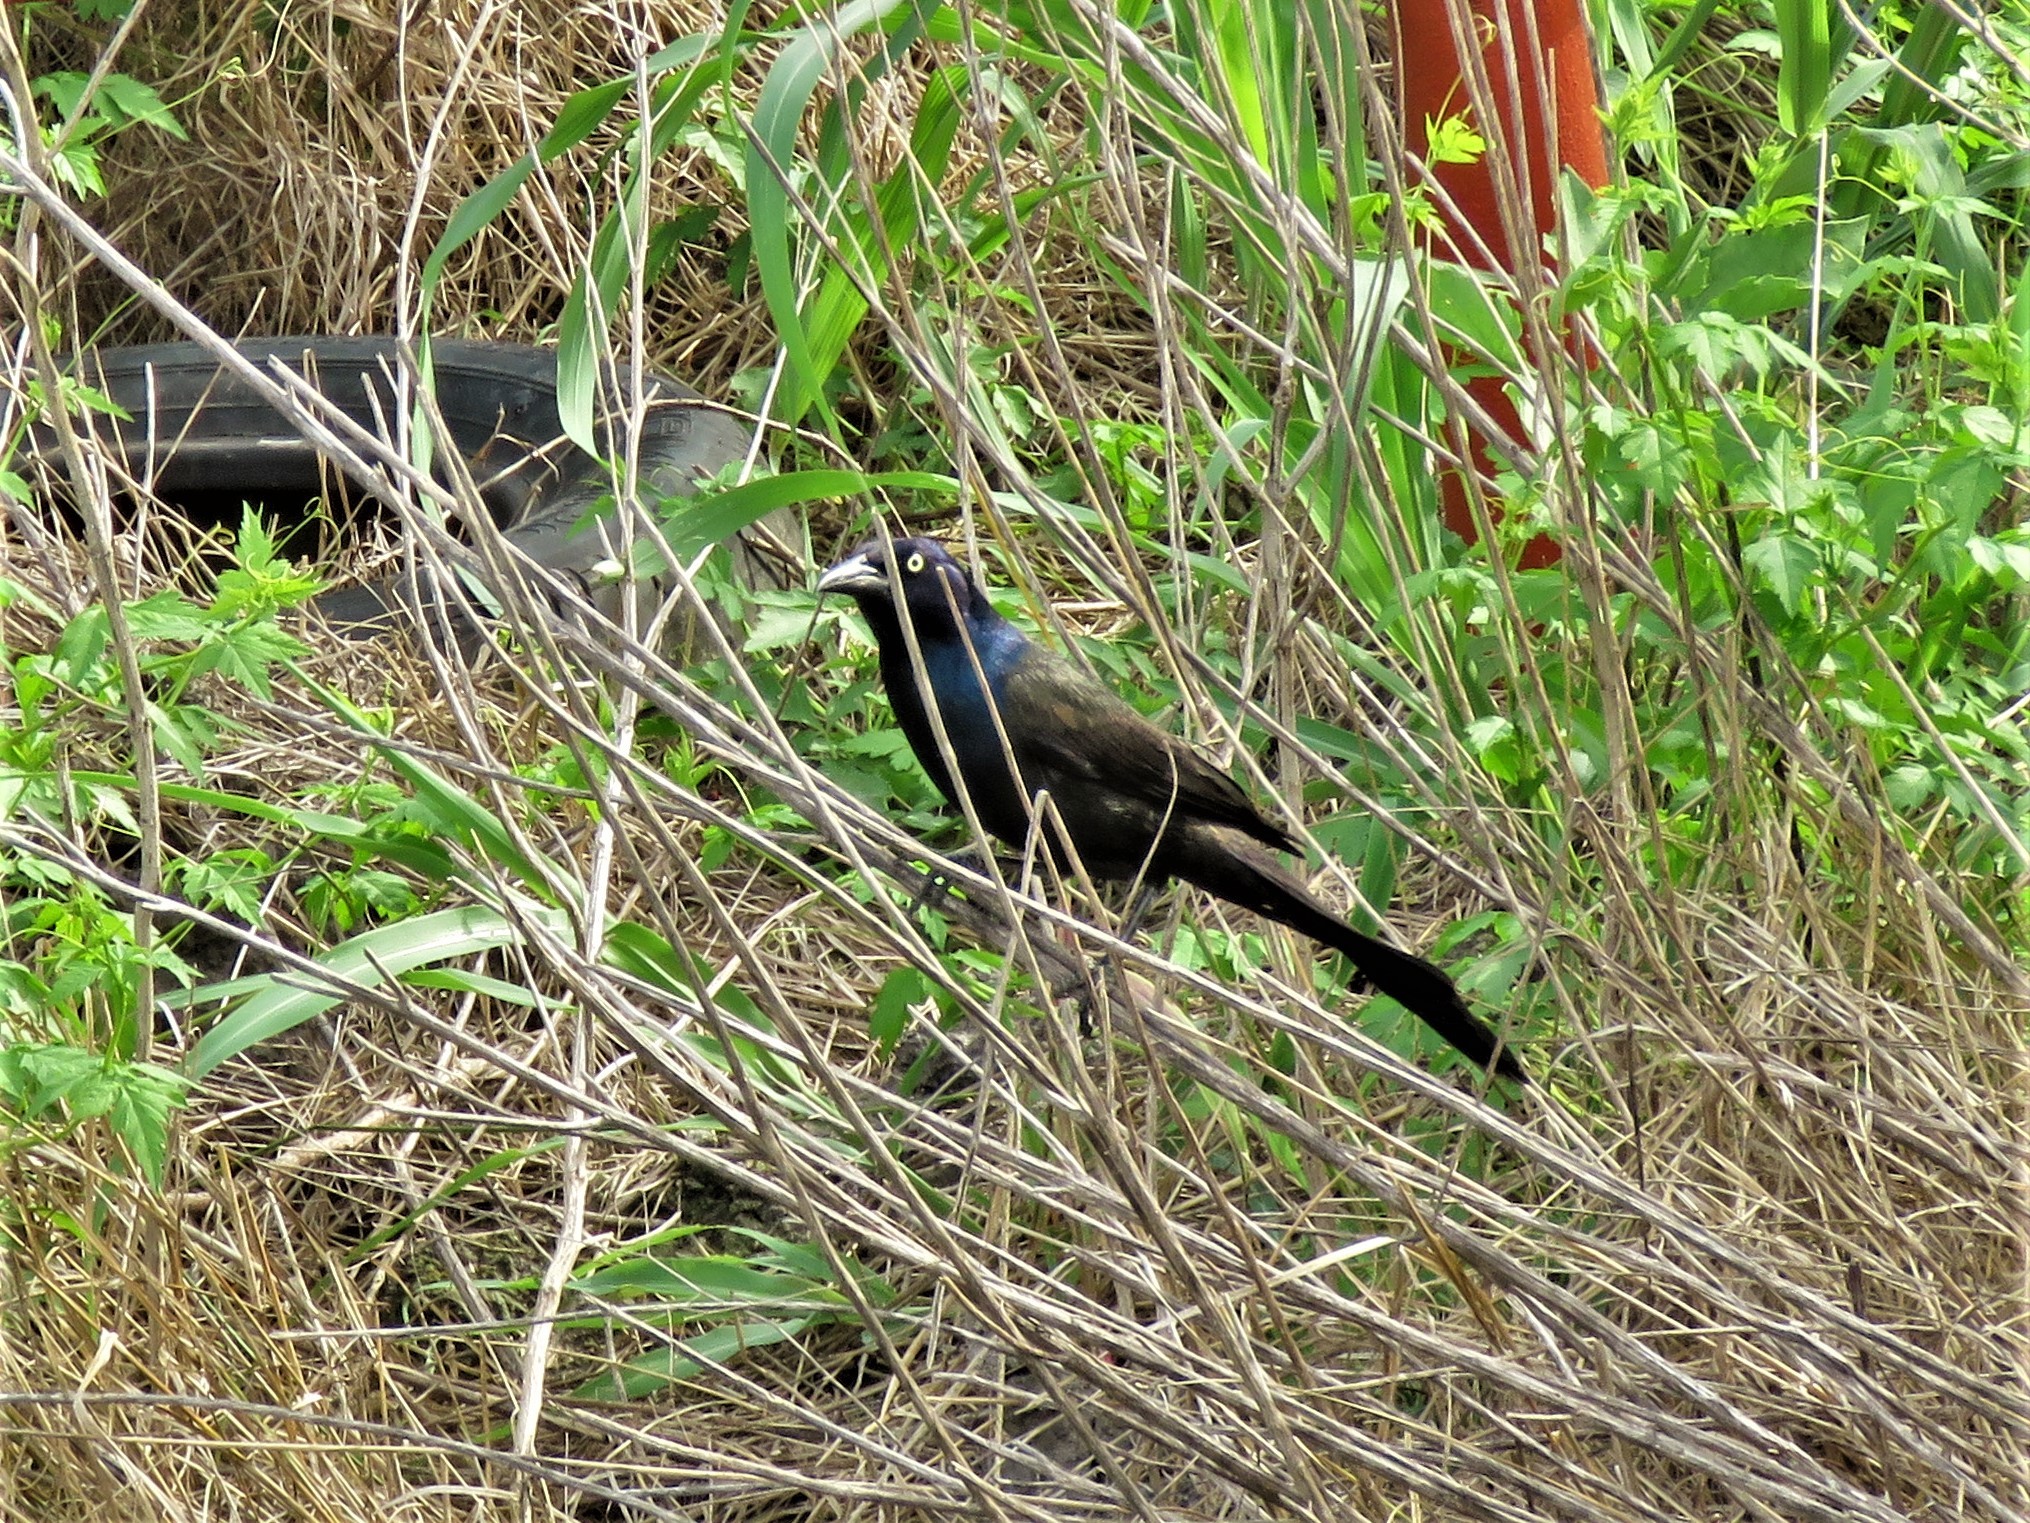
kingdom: Animalia
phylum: Chordata
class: Aves
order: Passeriformes
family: Icteridae
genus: Quiscalus
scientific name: Quiscalus quiscula
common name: Common grackle
